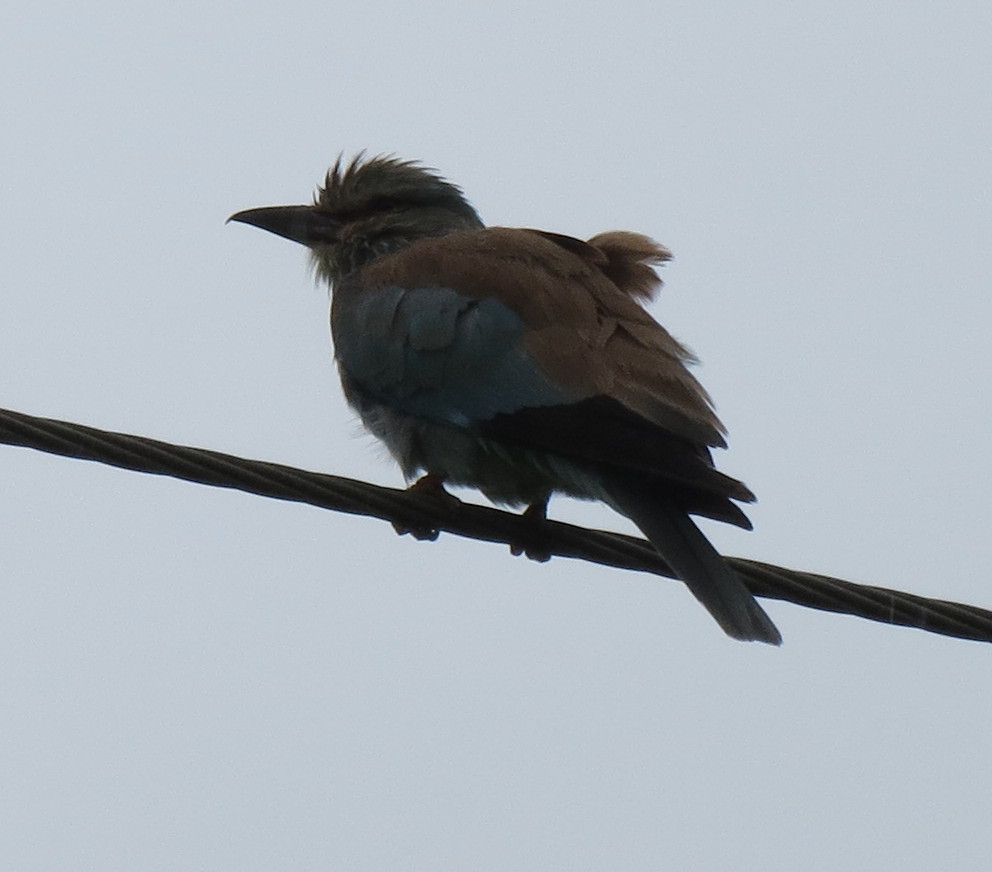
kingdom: Animalia
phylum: Chordata
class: Aves
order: Coraciiformes
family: Coraciidae
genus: Coracias
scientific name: Coracias garrulus
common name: European roller
